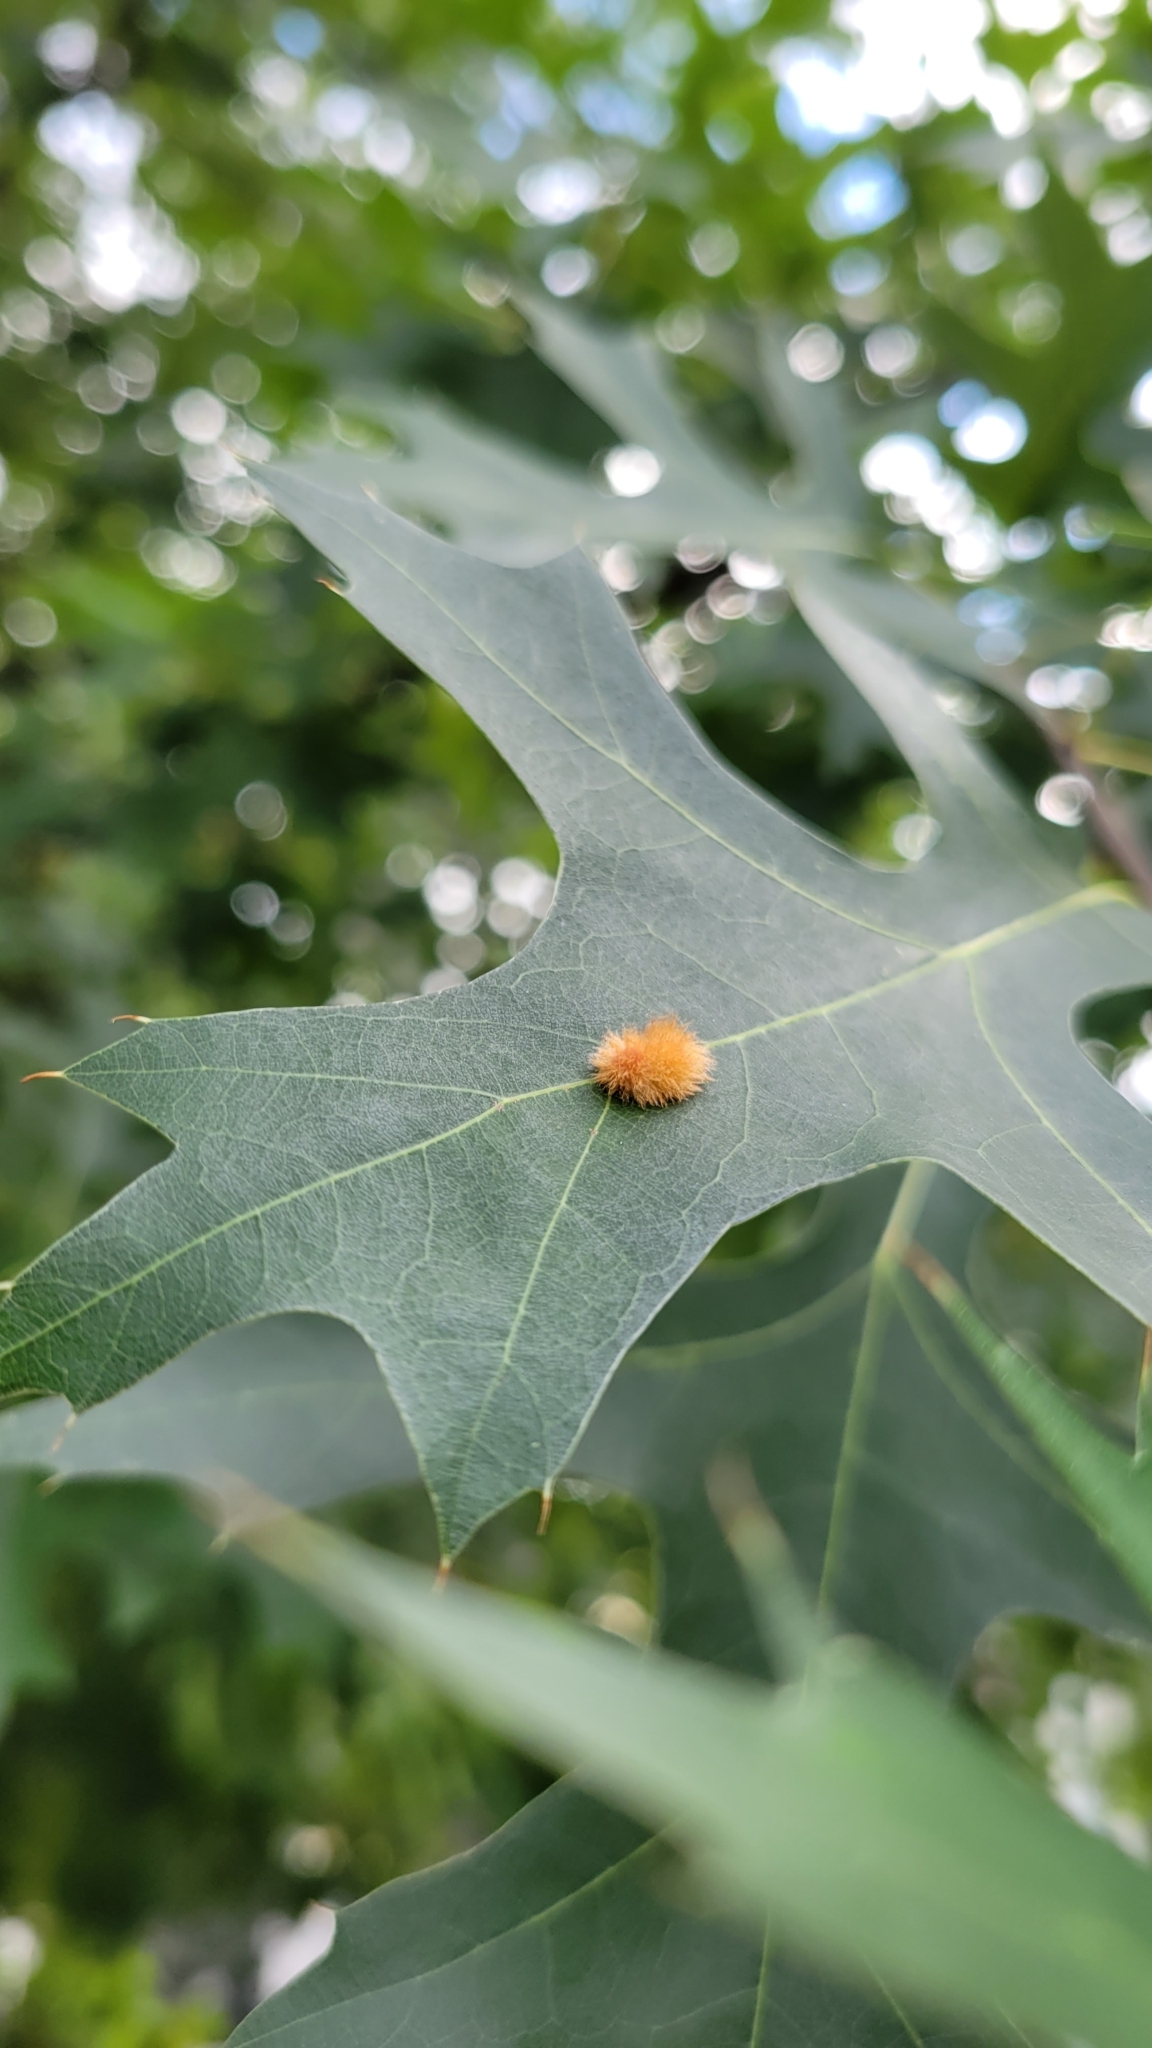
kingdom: Animalia
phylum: Arthropoda
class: Insecta
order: Hymenoptera
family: Cynipidae
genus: Callirhytis
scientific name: Callirhytis
